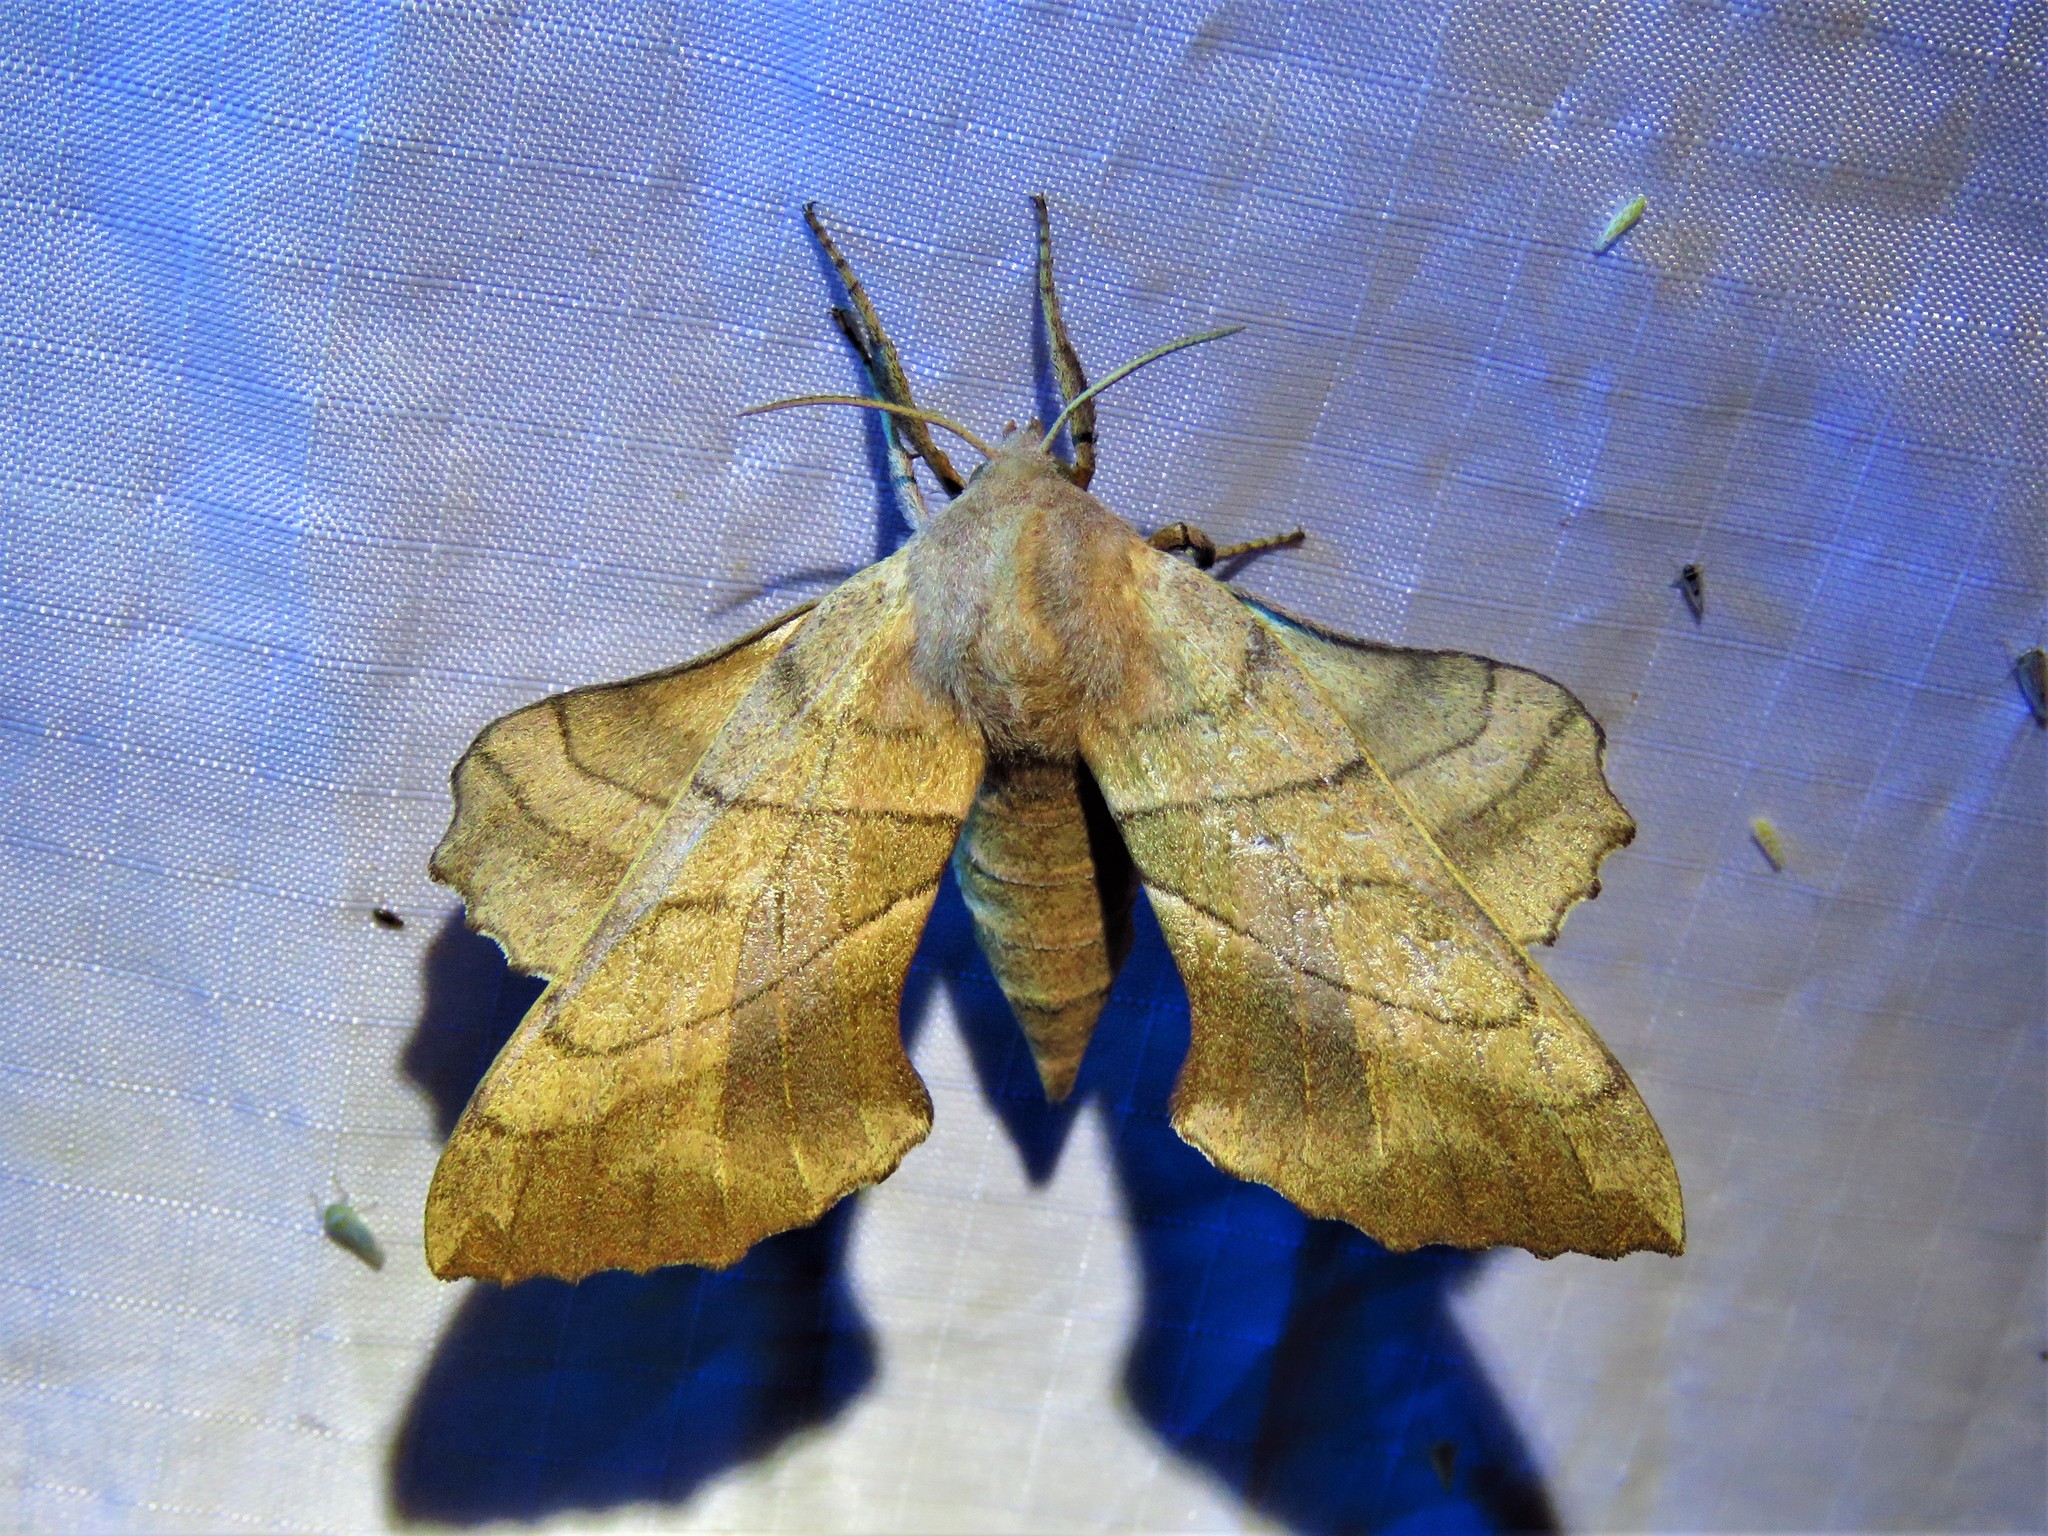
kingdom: Animalia
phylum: Arthropoda
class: Insecta
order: Lepidoptera
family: Sphingidae
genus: Amorpha
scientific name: Amorpha juglandis
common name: Walnut sphinx
